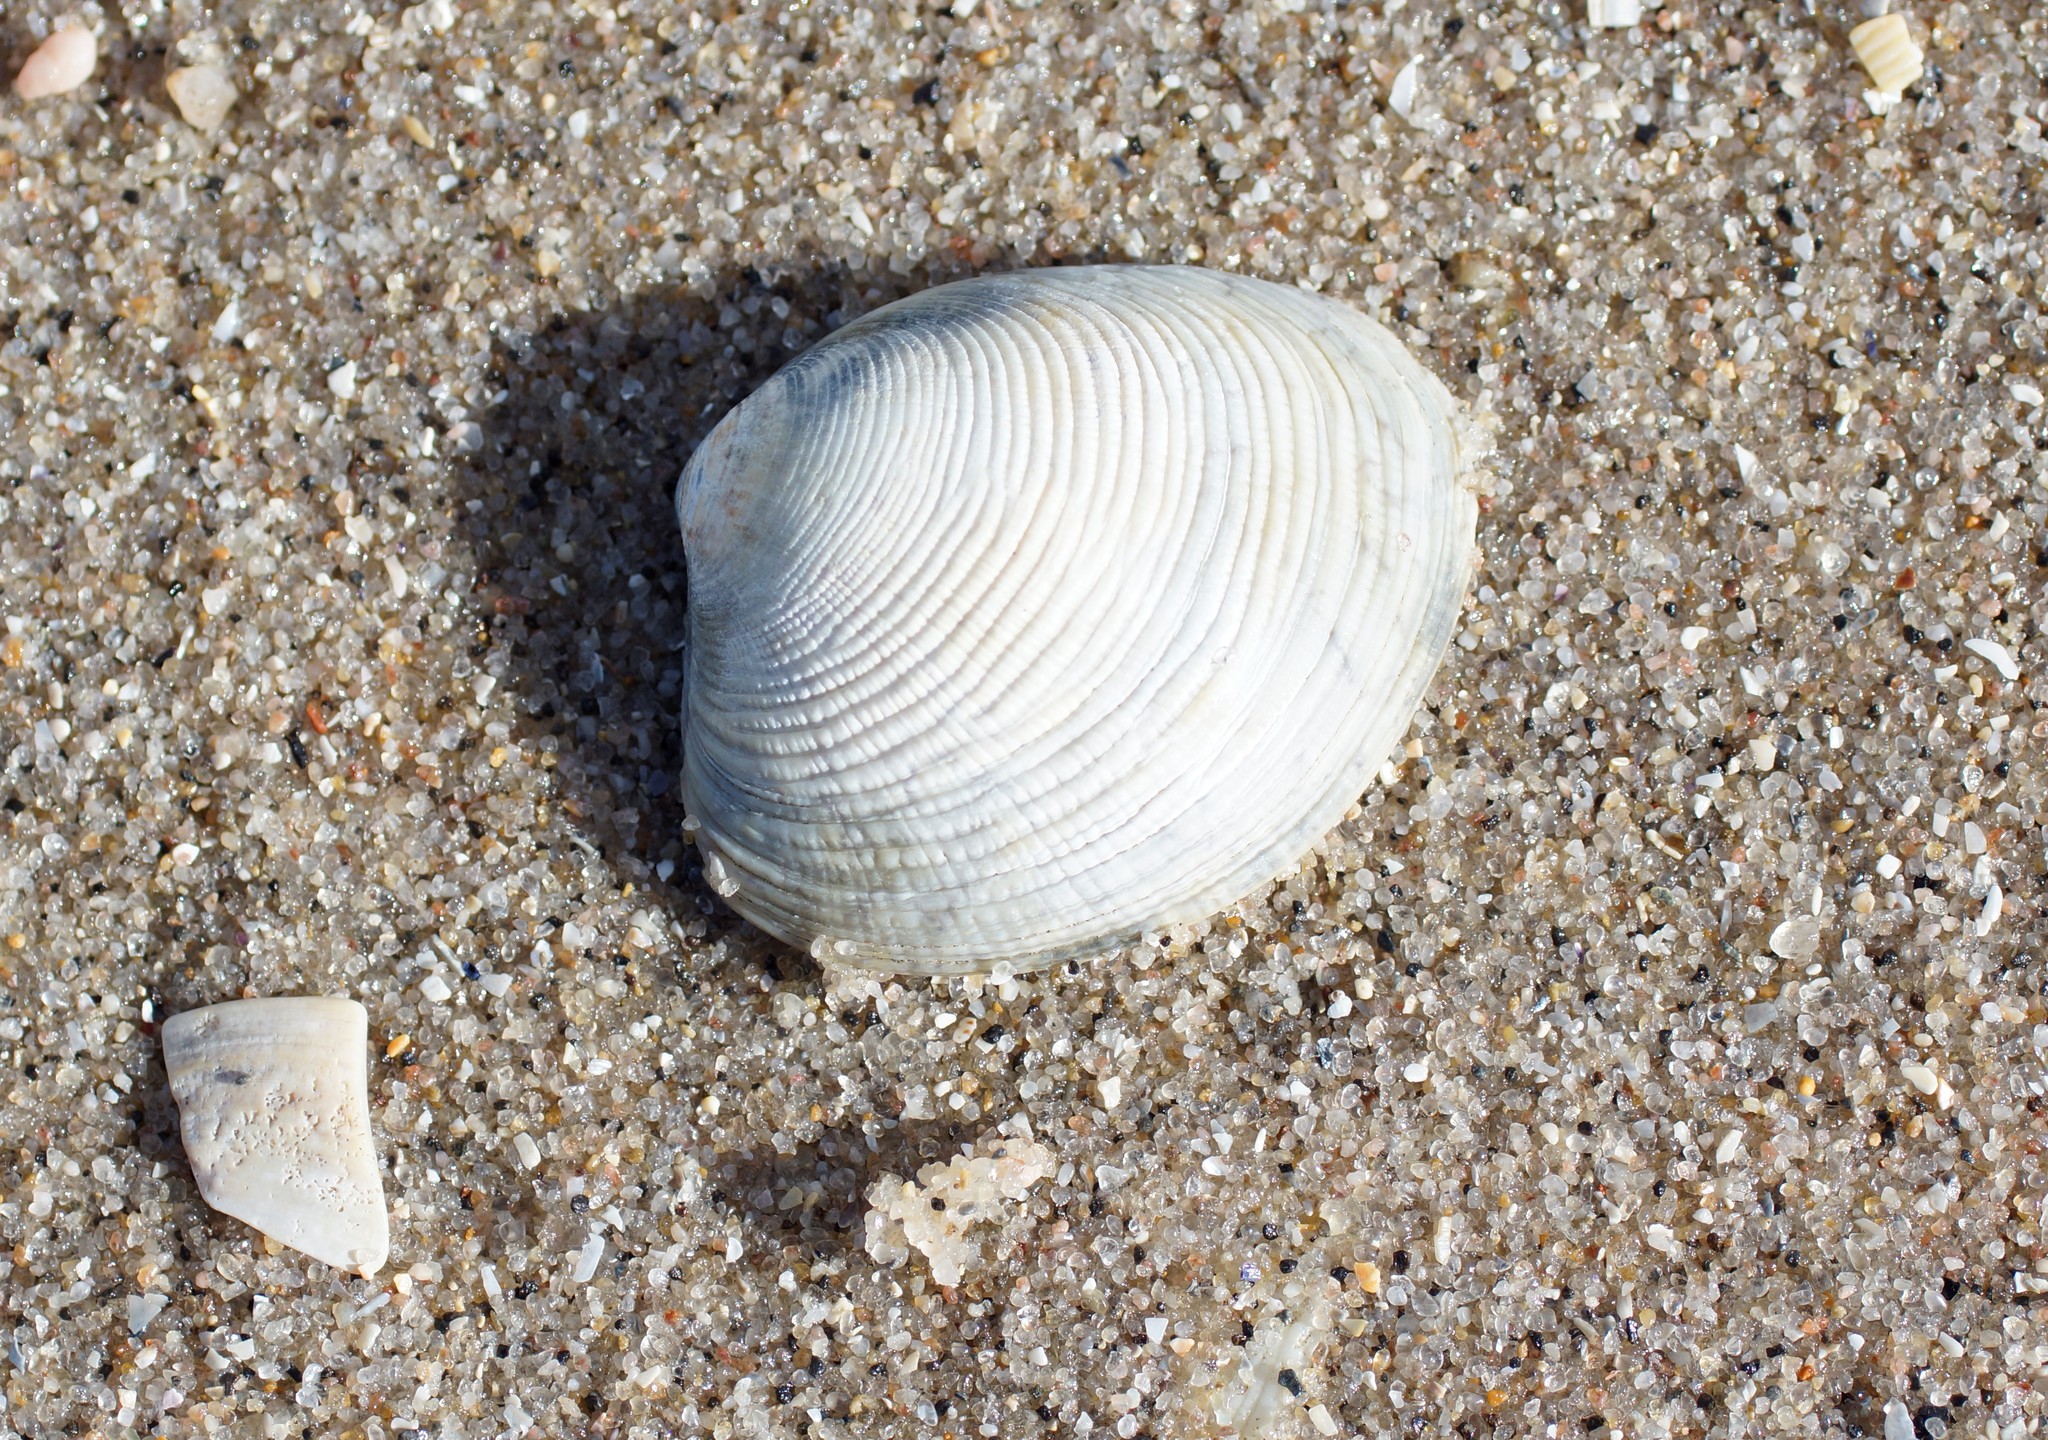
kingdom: Animalia
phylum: Mollusca
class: Bivalvia
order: Venerida
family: Veneridae
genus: Katelysia
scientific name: Katelysia rhytiphora
